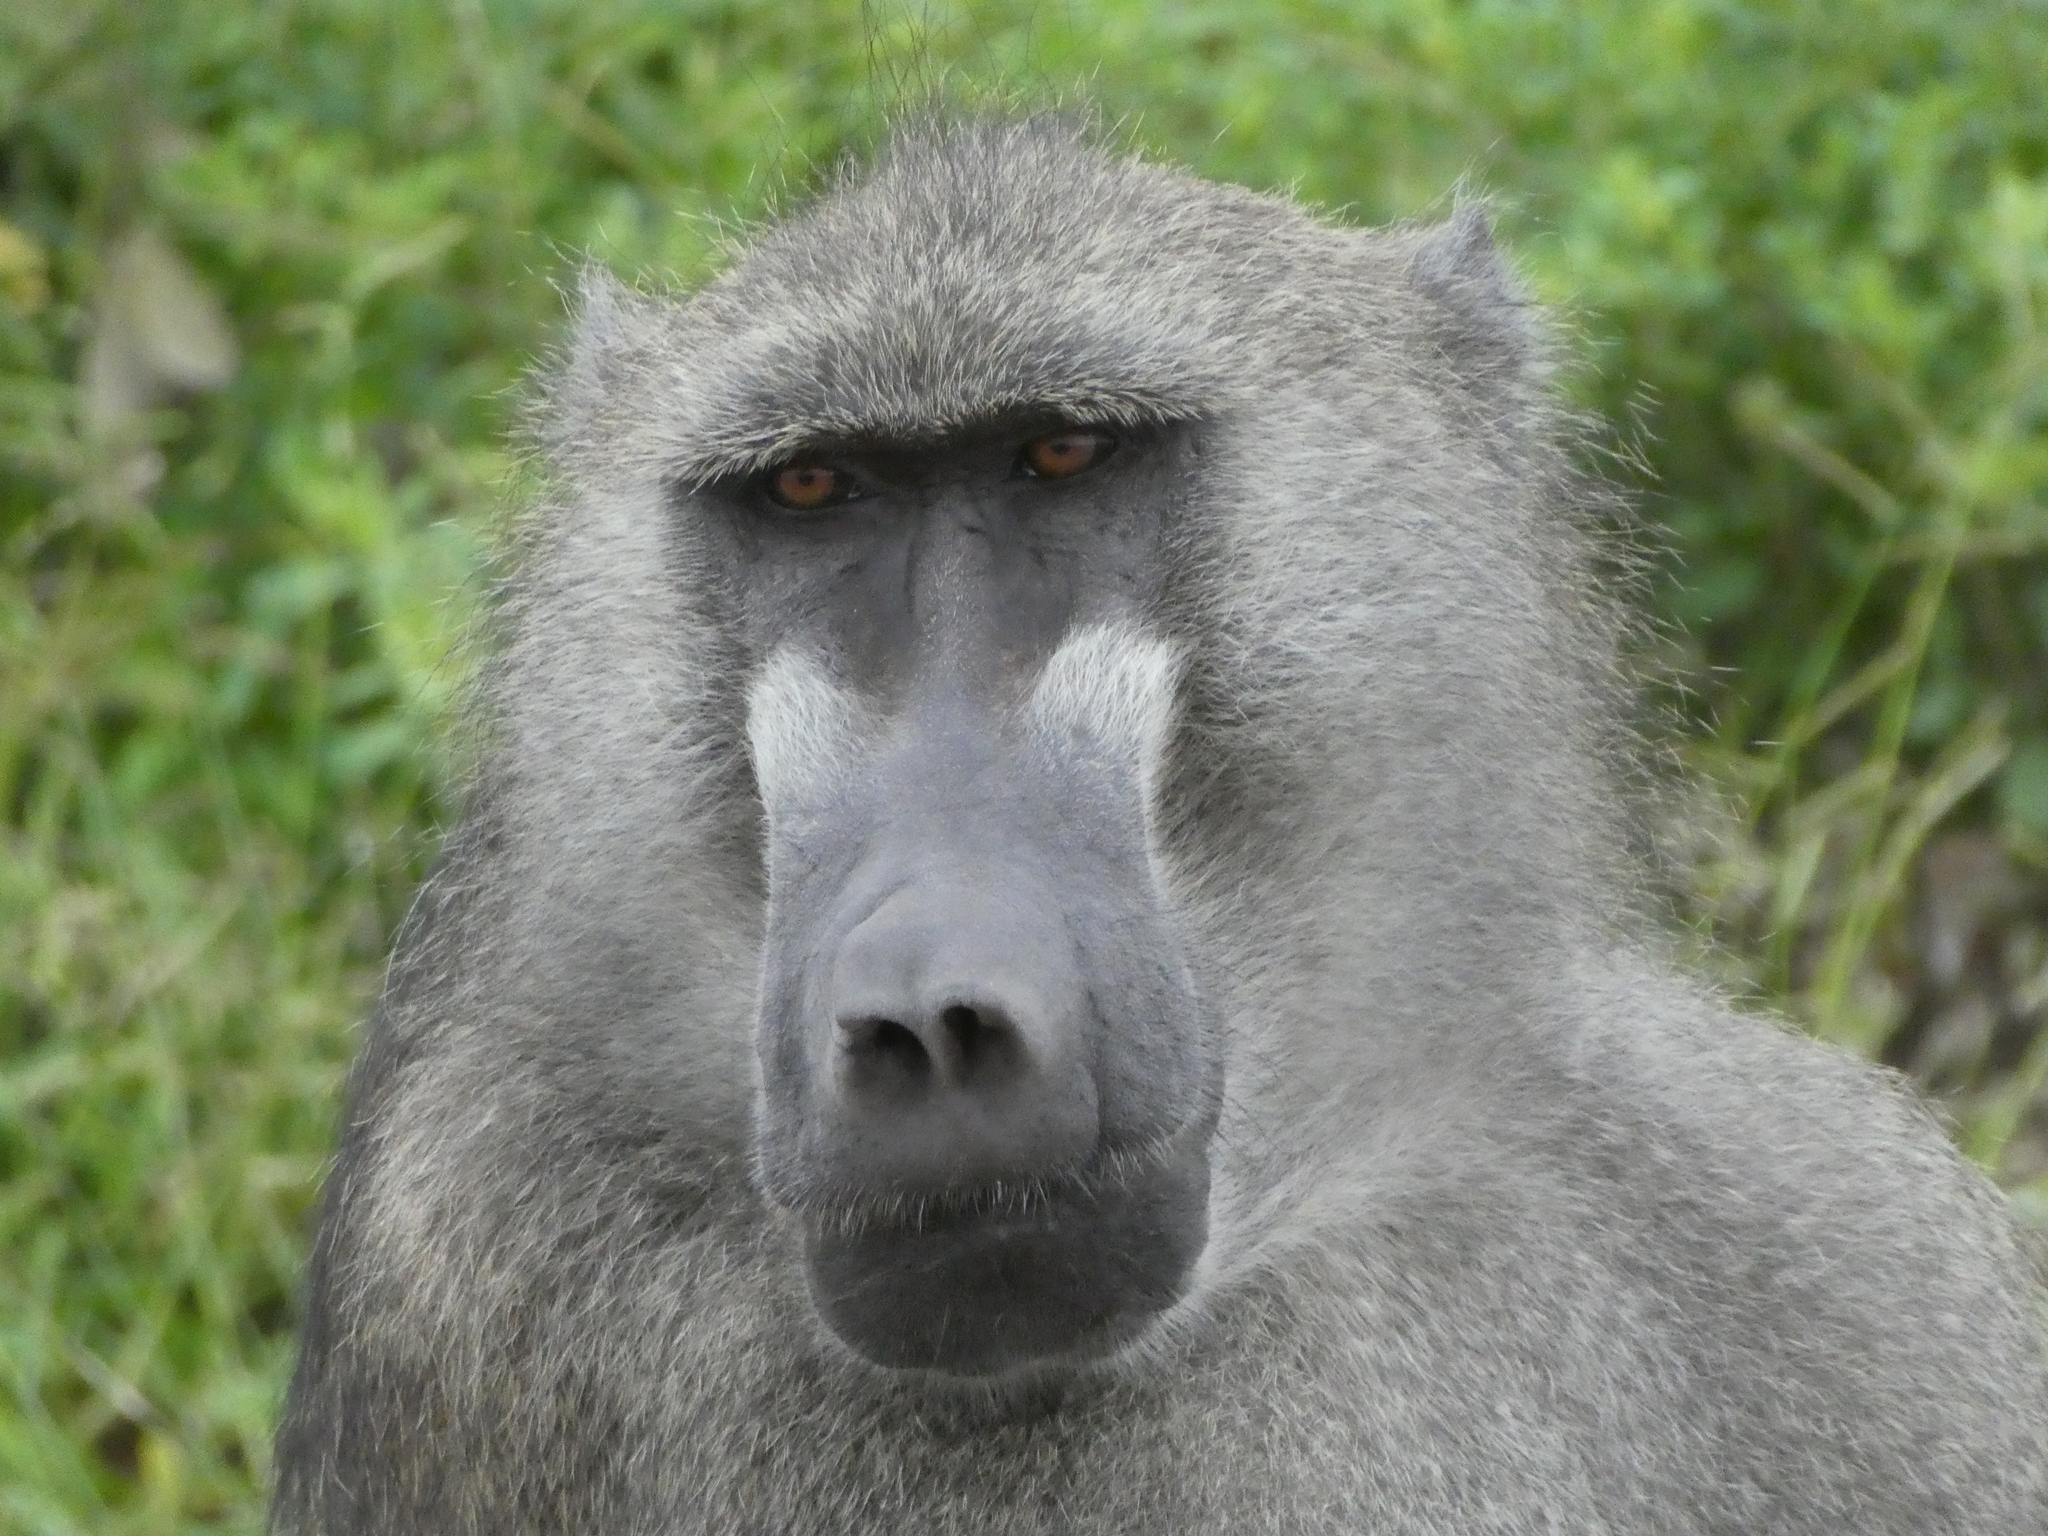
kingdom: Animalia
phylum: Chordata
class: Mammalia
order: Primates
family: Cercopithecidae
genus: Papio
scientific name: Papio ursinus
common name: Chacma baboon
